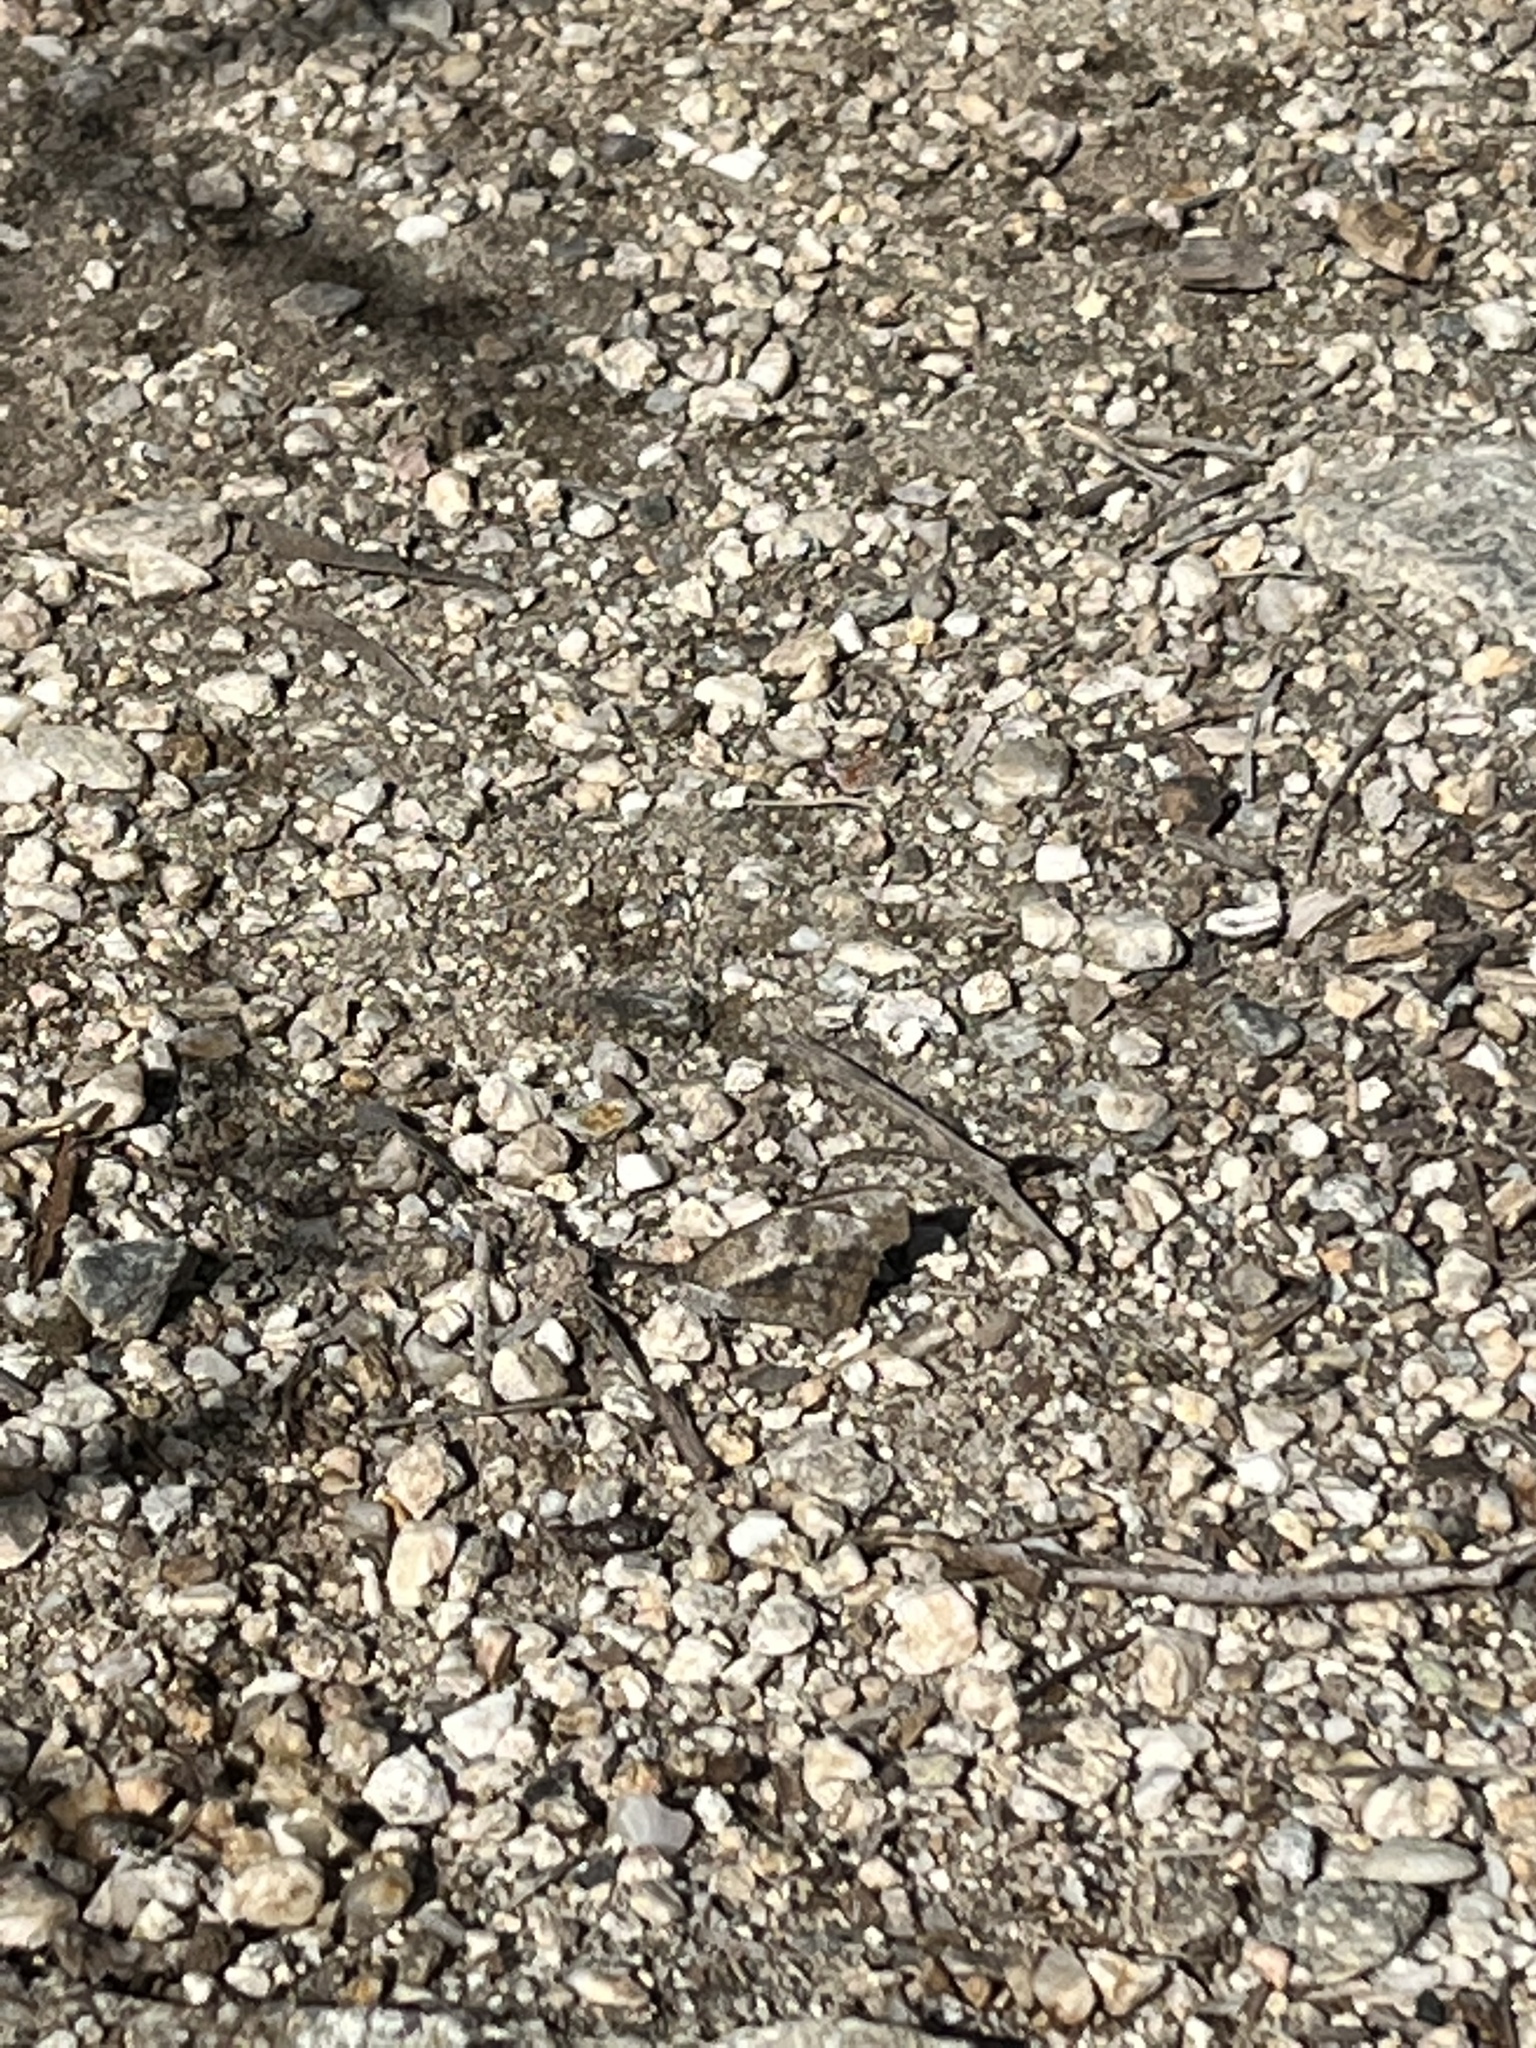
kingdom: Animalia
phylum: Arthropoda
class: Insecta
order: Lepidoptera
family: Nymphalidae
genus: Libytheana
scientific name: Libytheana carinenta
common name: American snout
